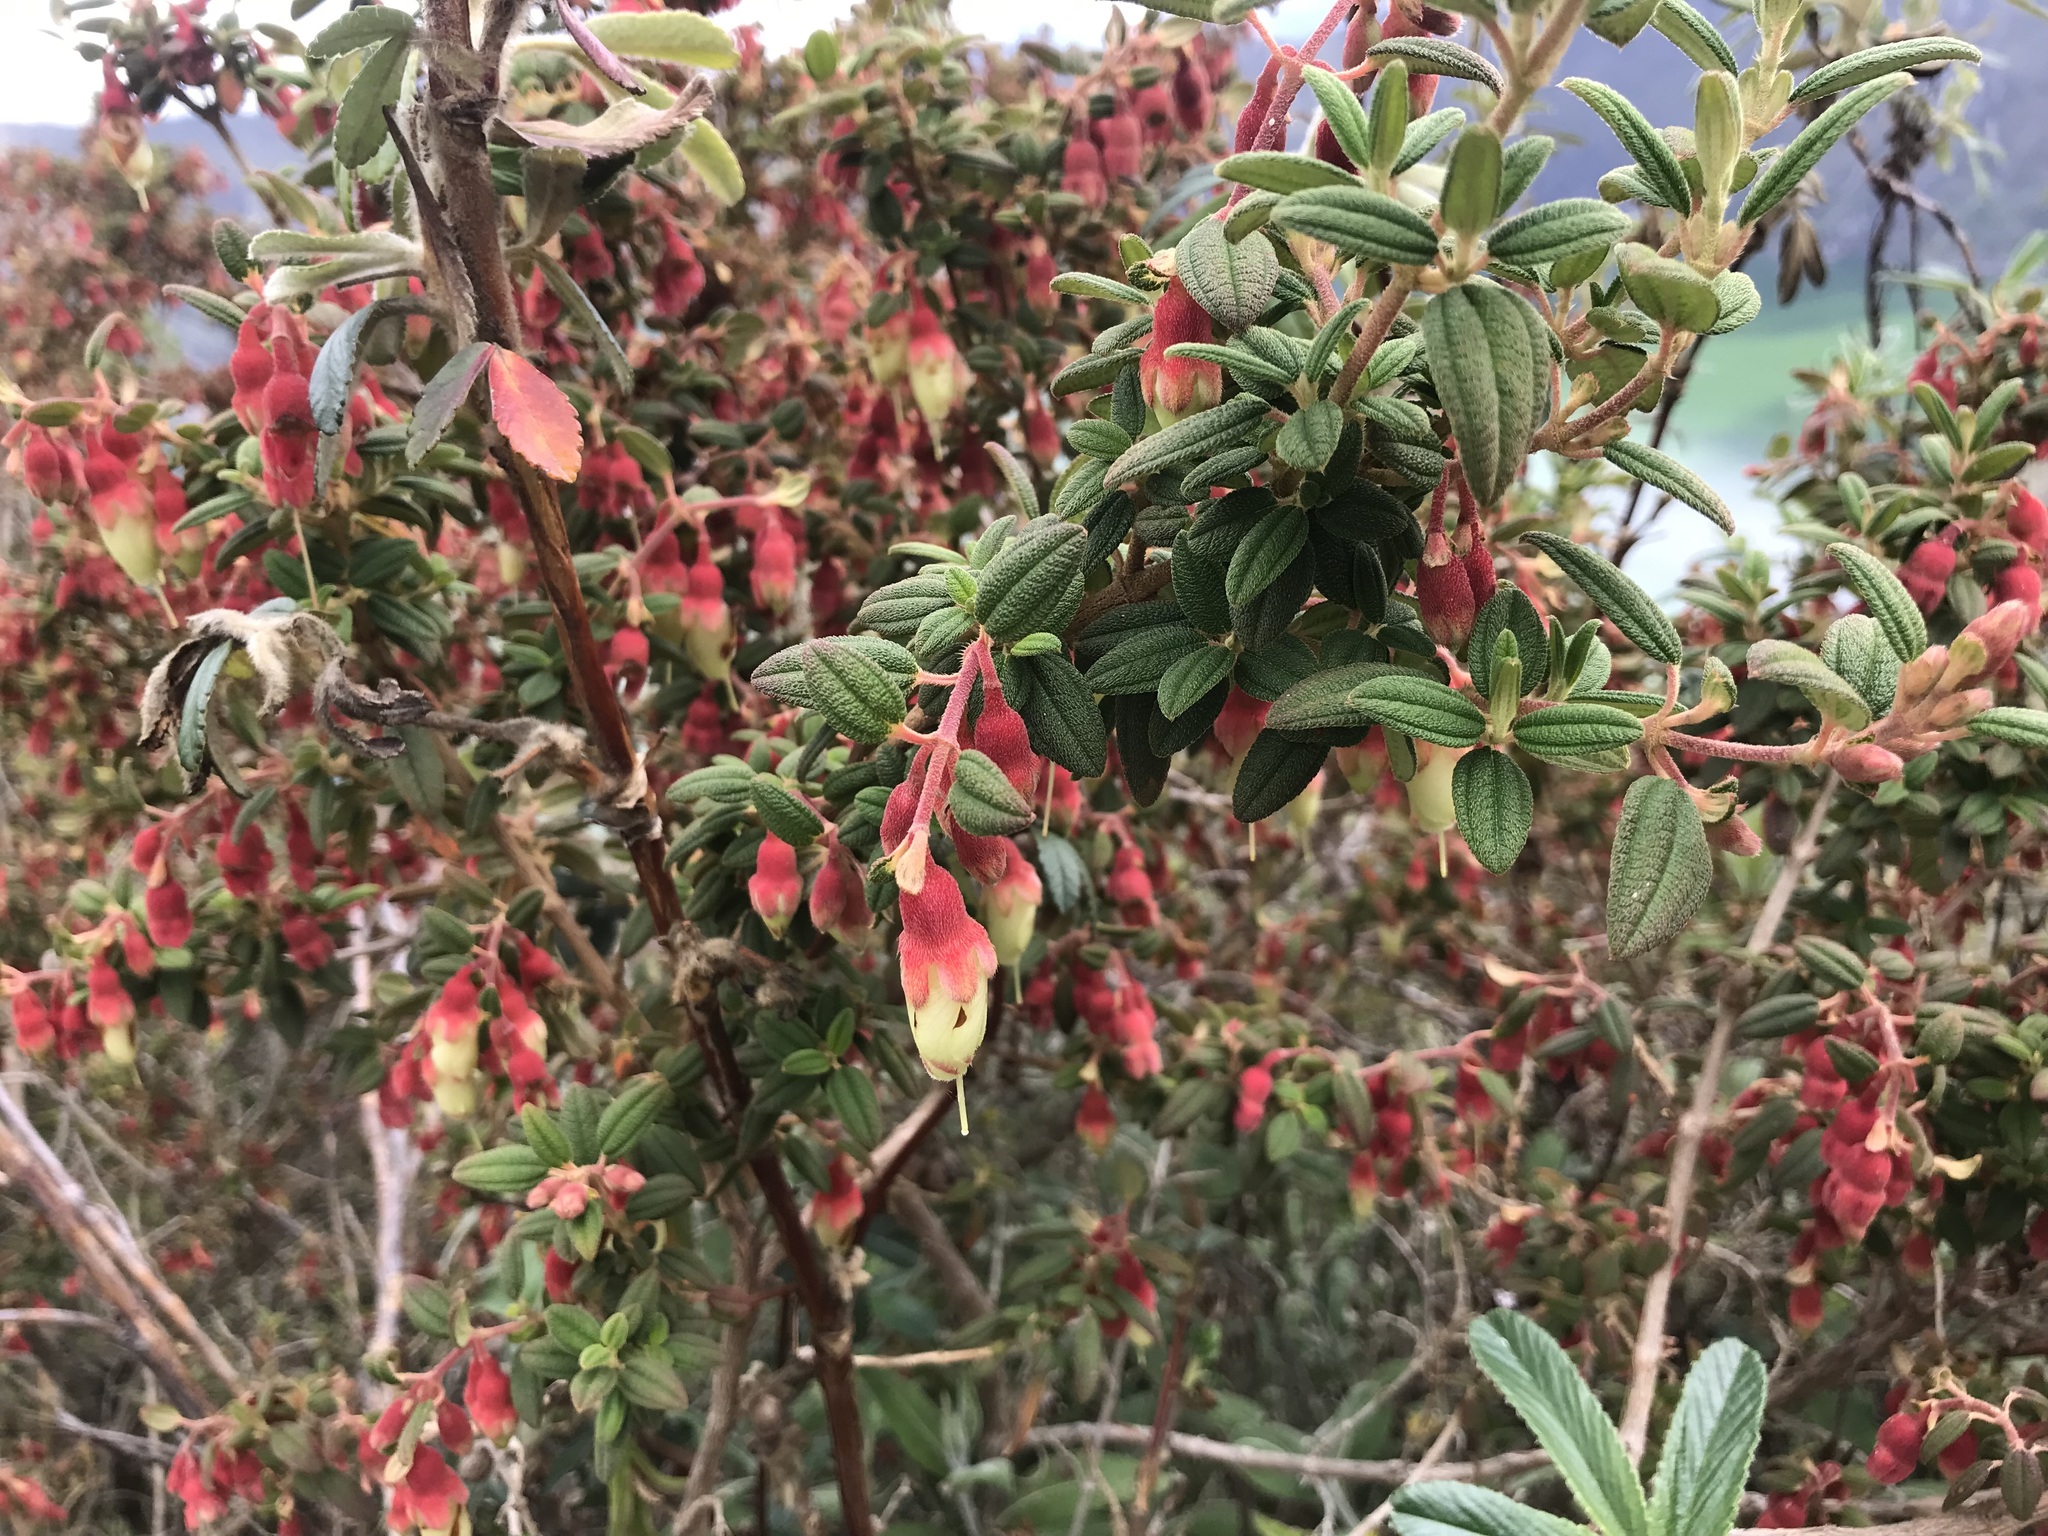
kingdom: Plantae
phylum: Tracheophyta
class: Magnoliopsida
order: Myrtales
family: Melastomataceae
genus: Brachyotum
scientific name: Brachyotum ledifolium
